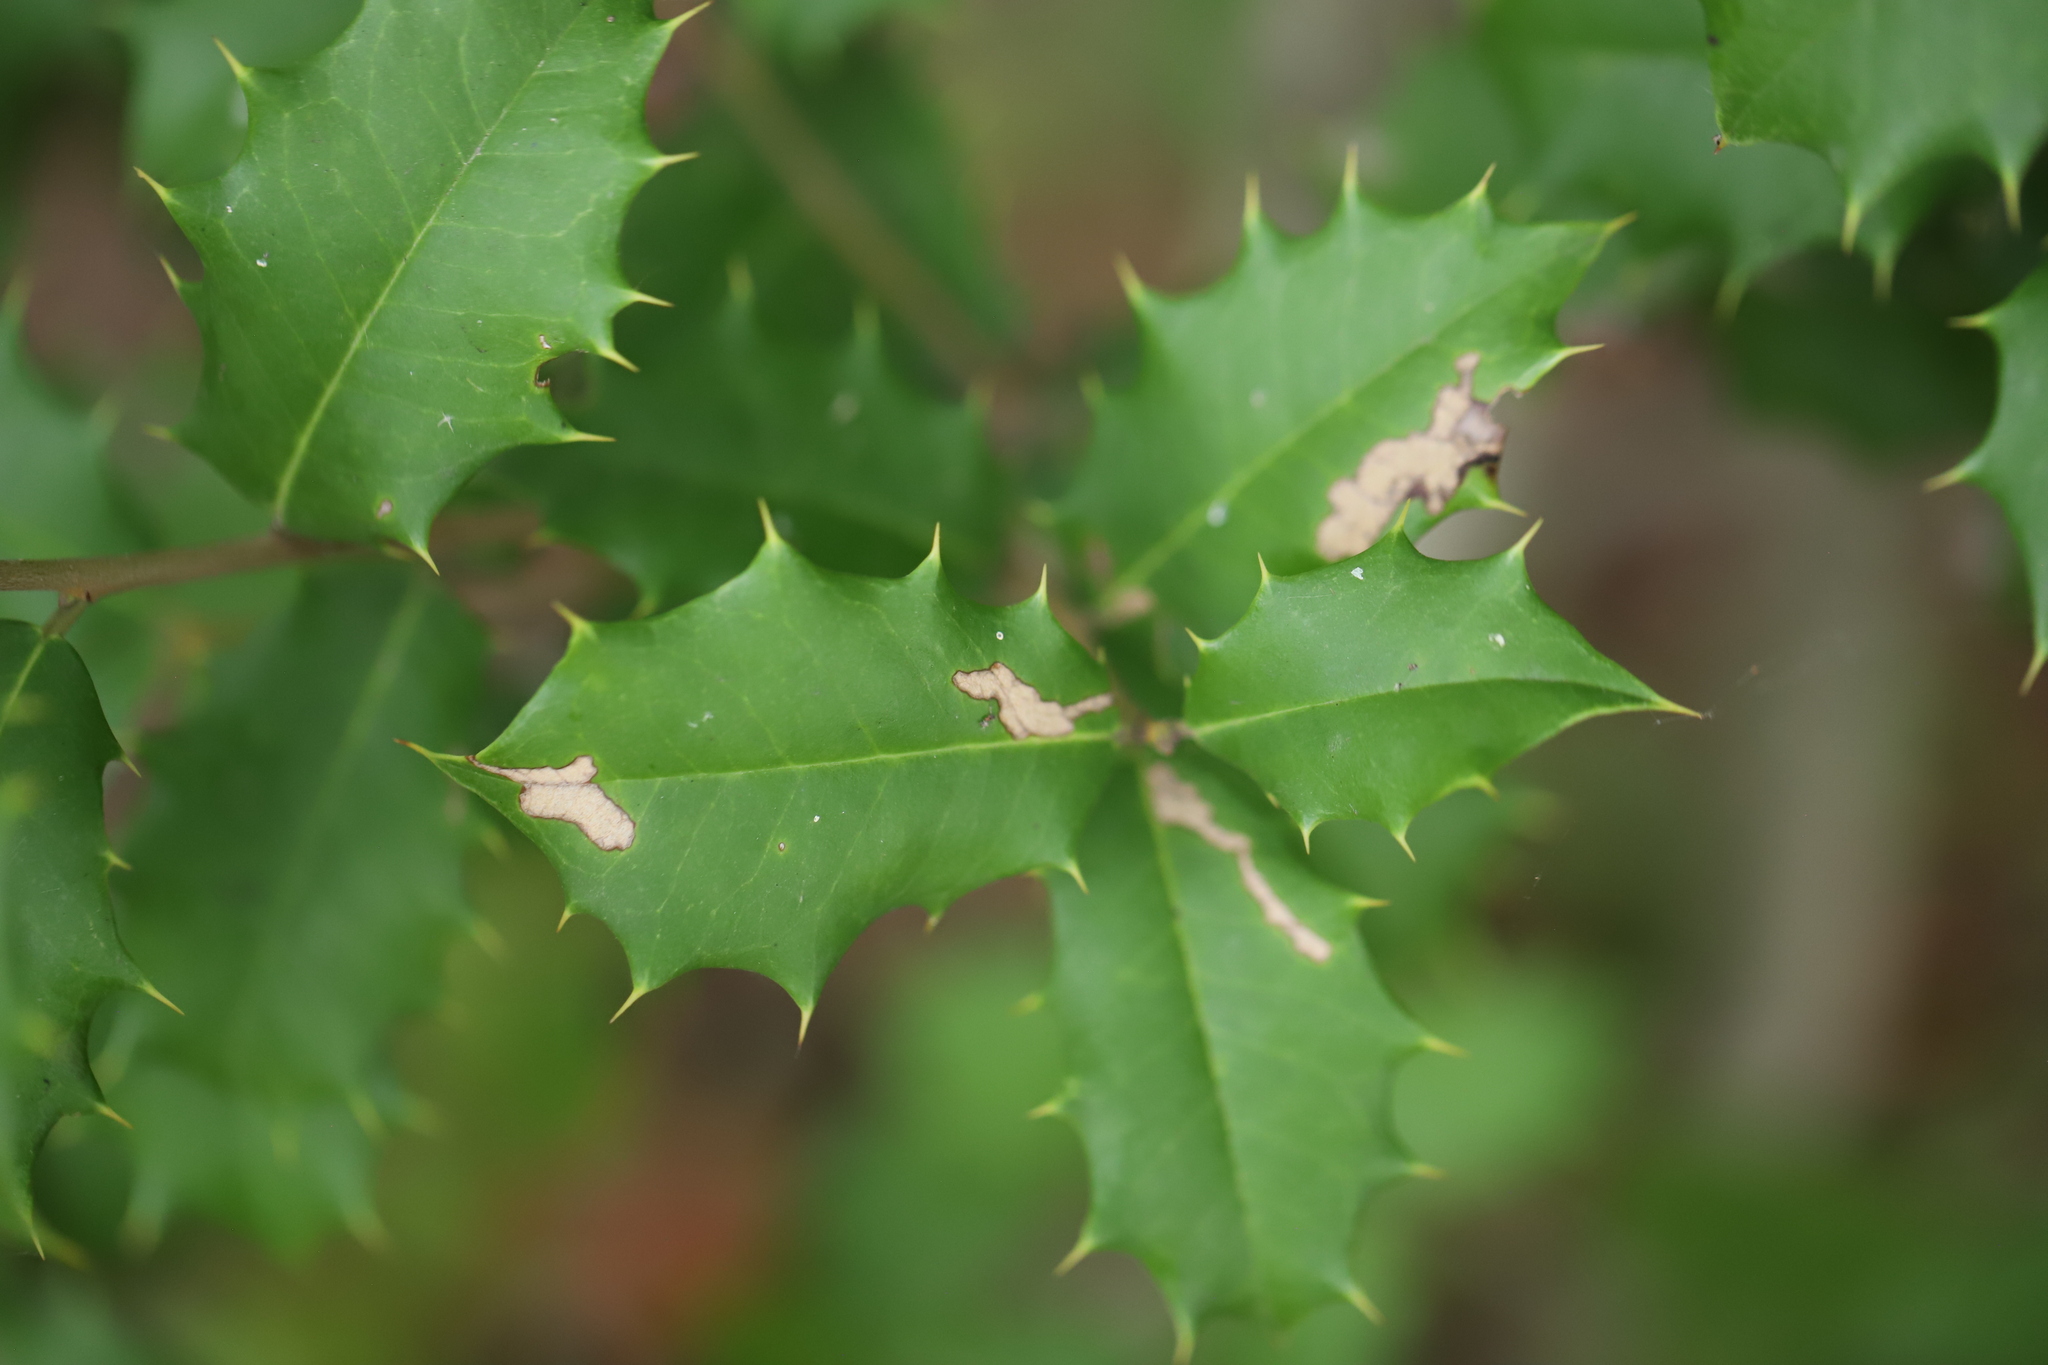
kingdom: Plantae
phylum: Tracheophyta
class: Magnoliopsida
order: Aquifoliales
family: Aquifoliaceae
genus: Ilex
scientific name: Ilex opaca
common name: American holly
